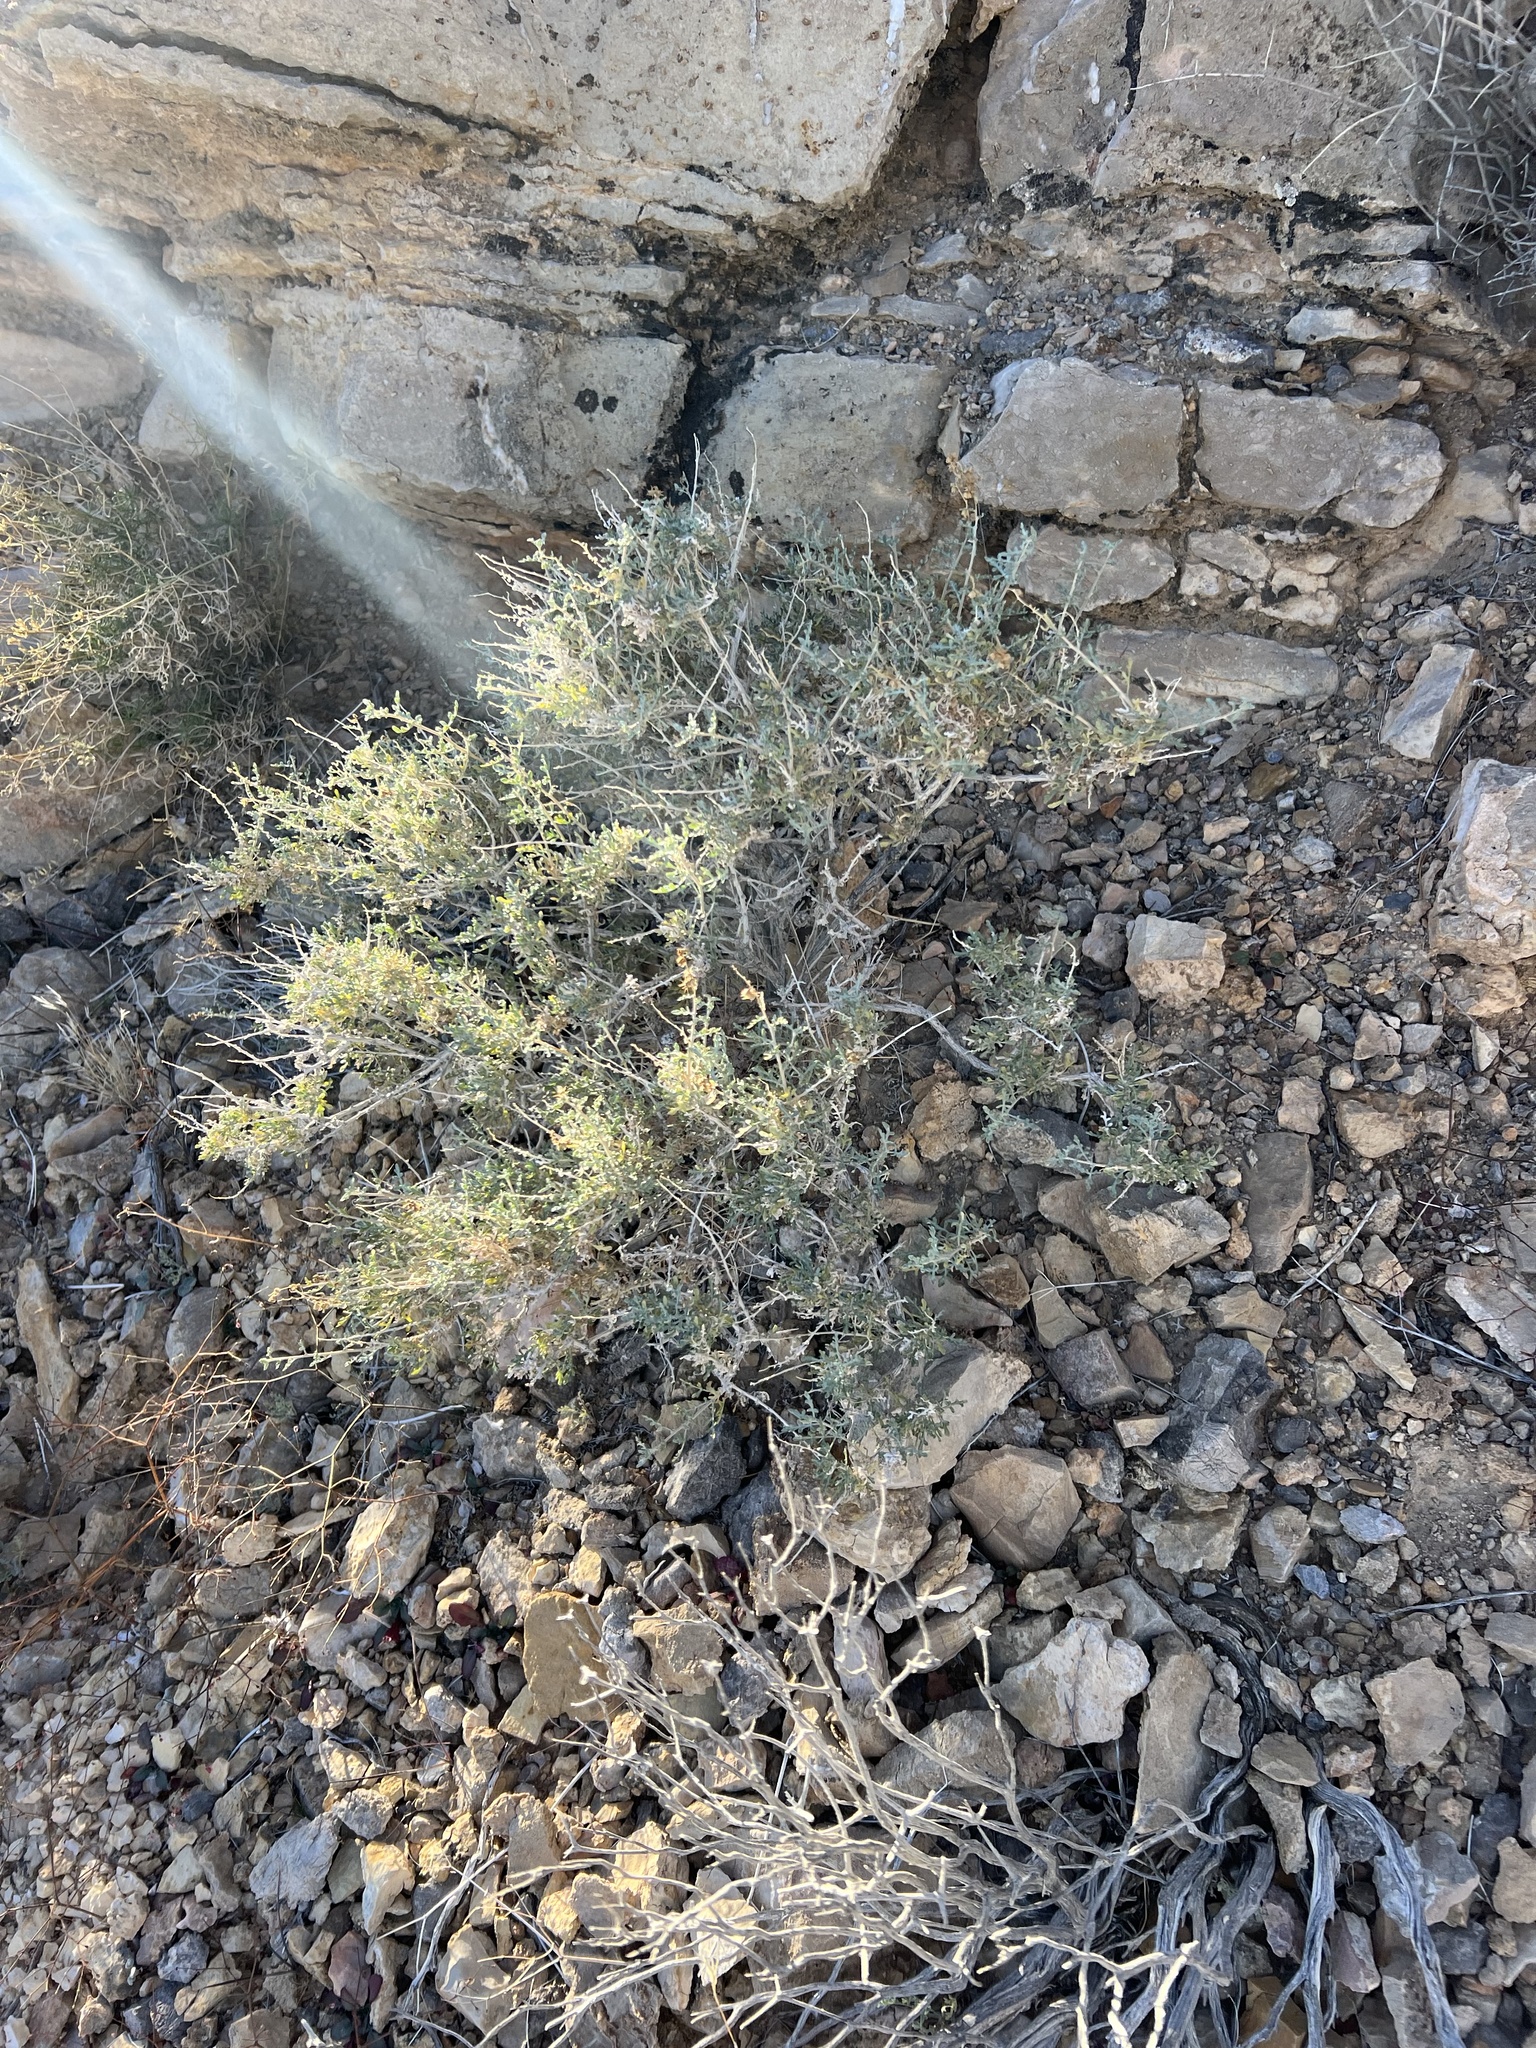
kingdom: Plantae
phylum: Tracheophyta
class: Magnoliopsida
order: Asterales
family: Asteraceae
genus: Ambrosia
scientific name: Ambrosia dumosa
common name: Bur-sage
